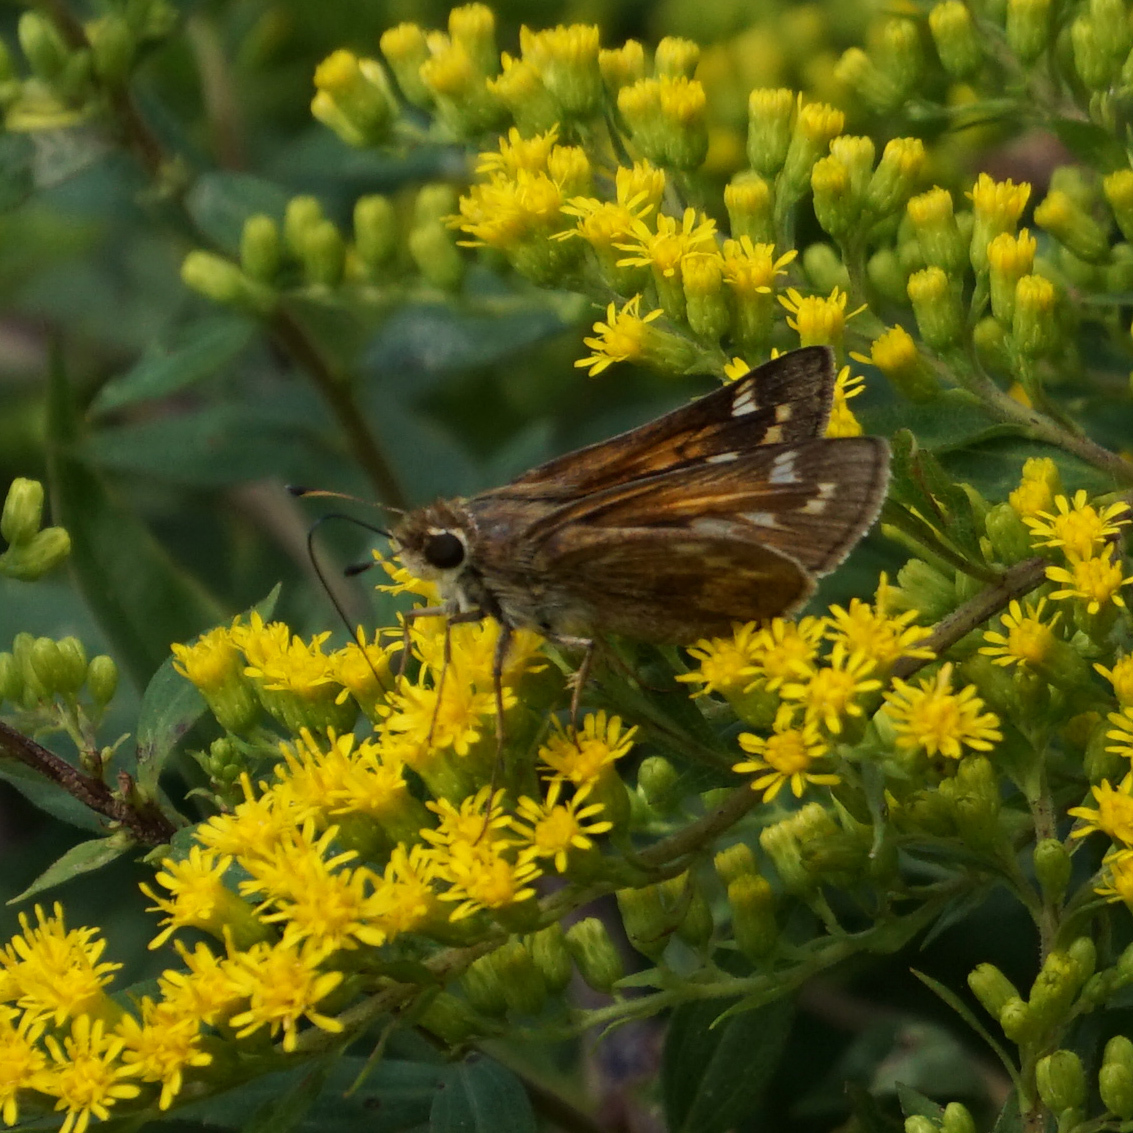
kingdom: Animalia
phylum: Arthropoda
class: Insecta
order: Lepidoptera
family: Hesperiidae
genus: Atalopedes
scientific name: Atalopedes
